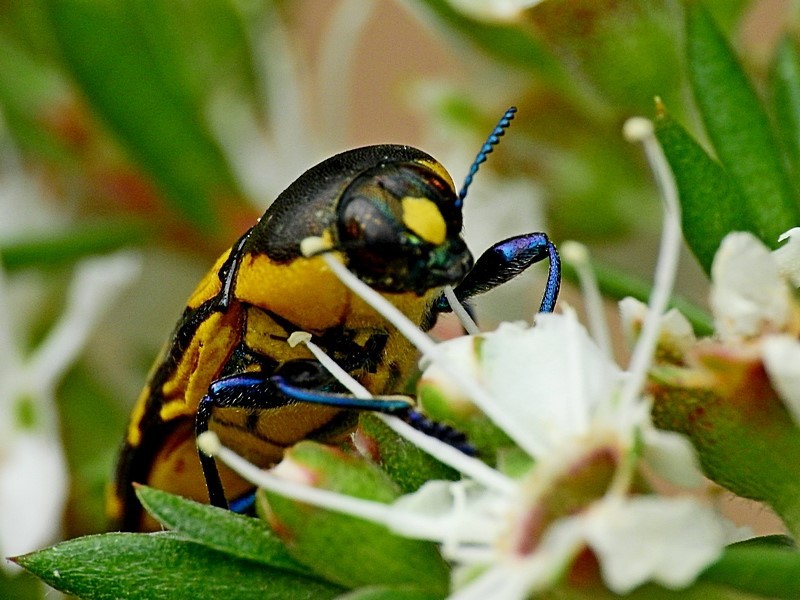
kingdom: Animalia
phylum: Arthropoda
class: Insecta
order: Coleoptera
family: Buprestidae
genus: Castiarina
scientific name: Castiarina octospilota
